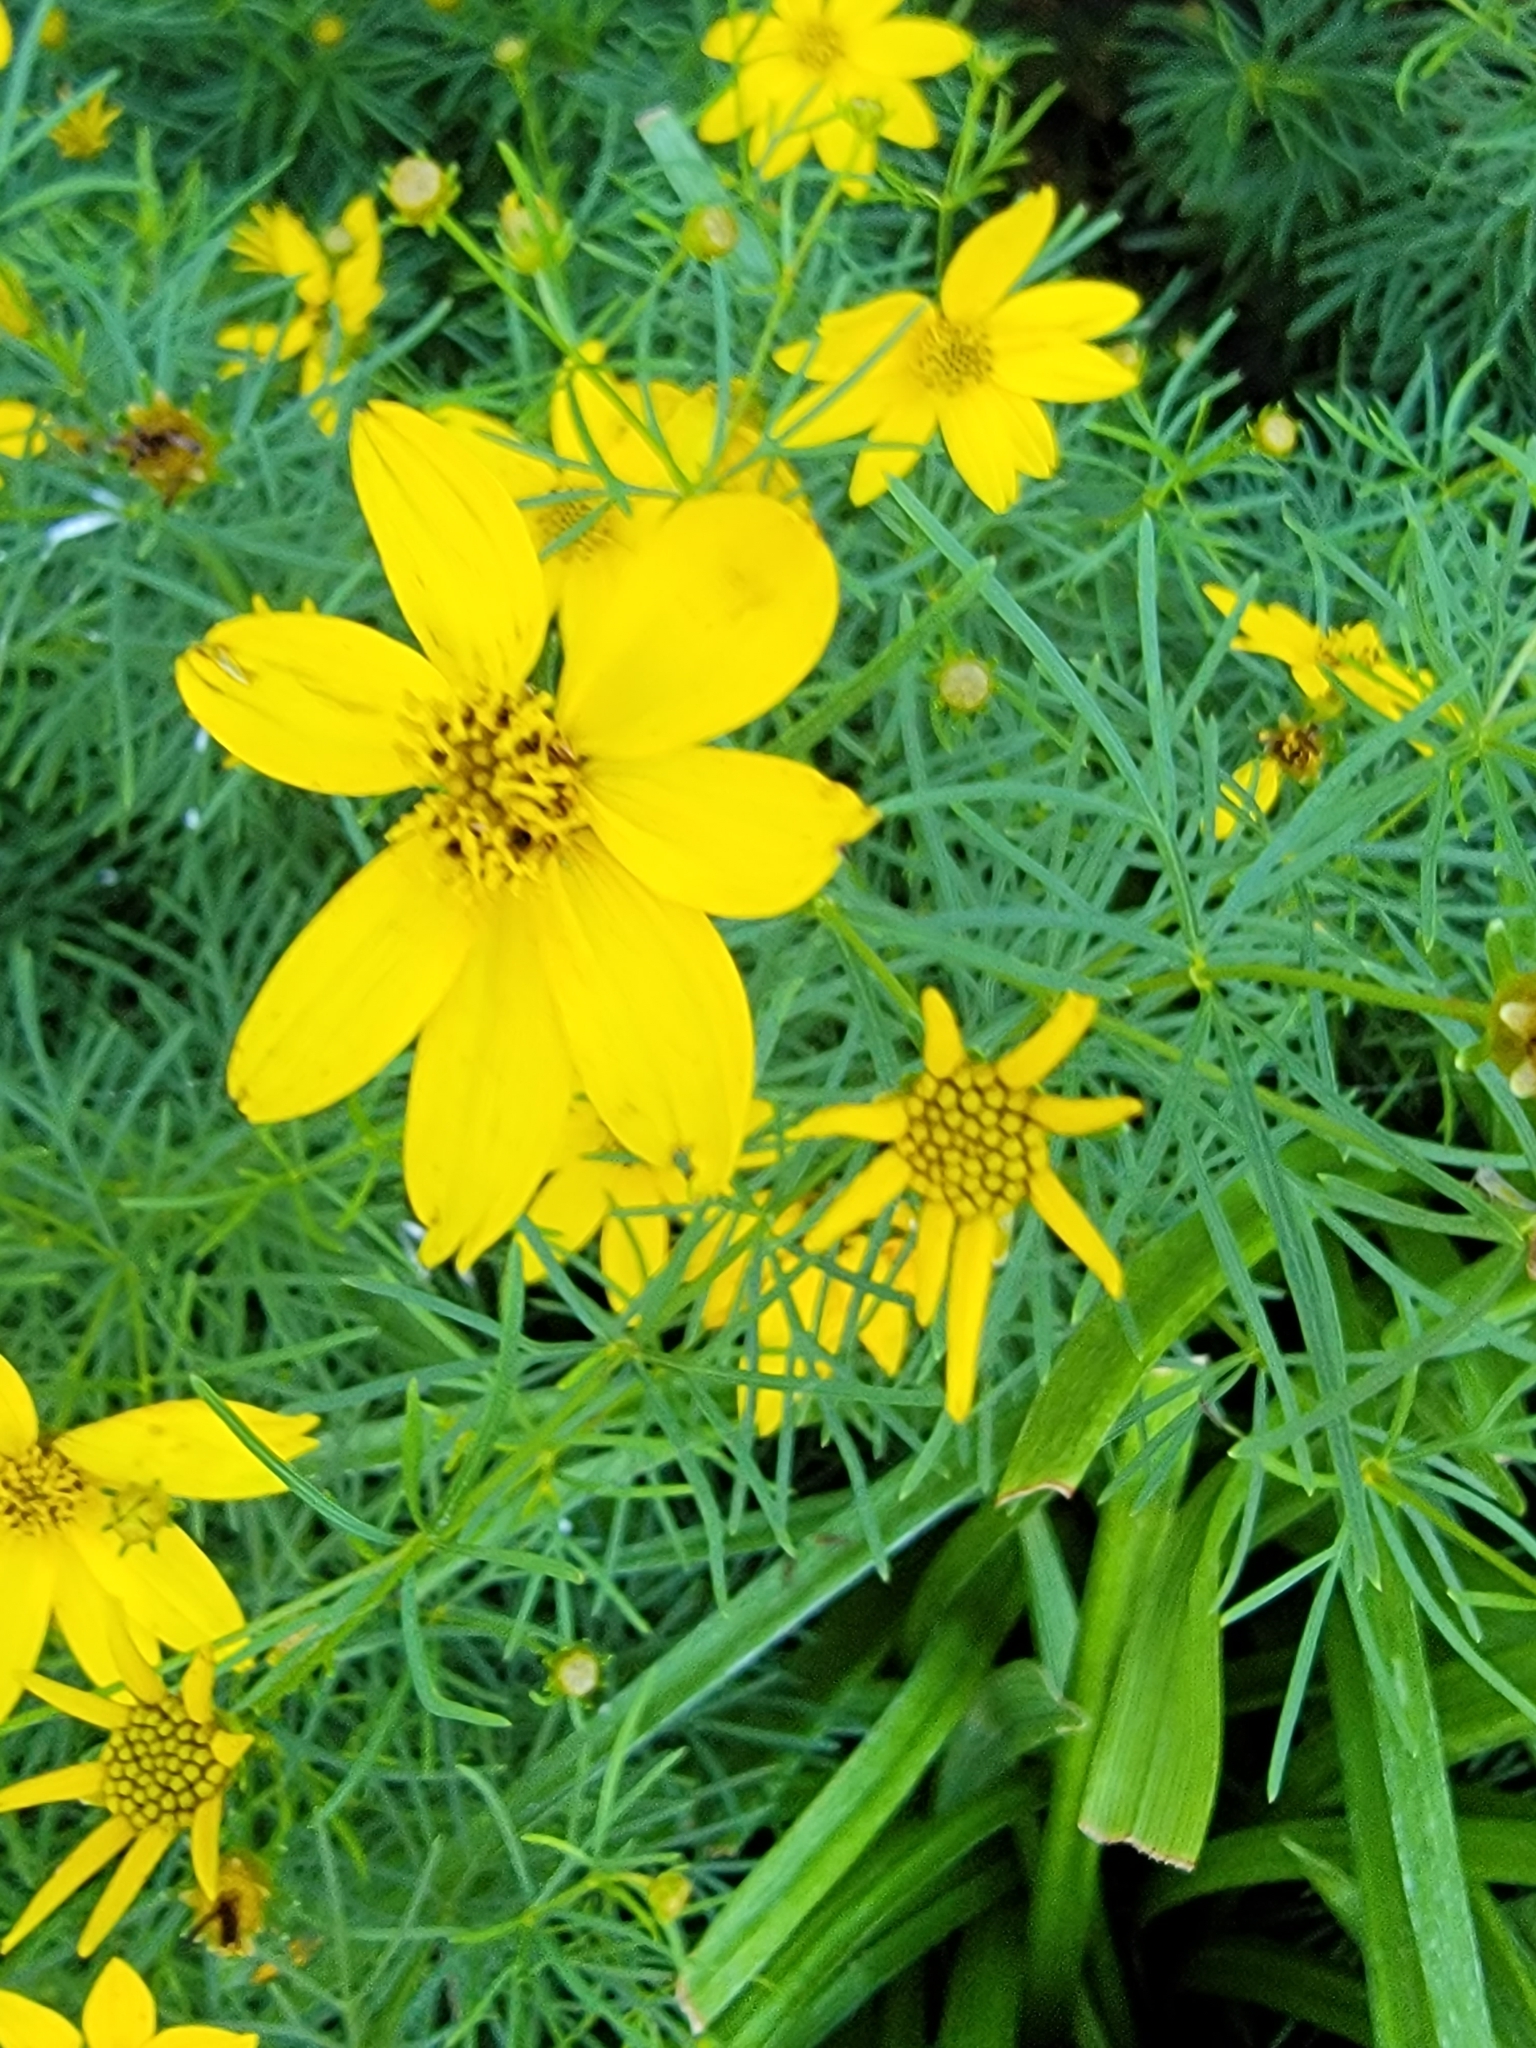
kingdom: Plantae
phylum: Tracheophyta
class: Magnoliopsida
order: Asterales
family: Asteraceae
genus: Coreopsis
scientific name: Coreopsis verticillata
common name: Whorled tickseed
